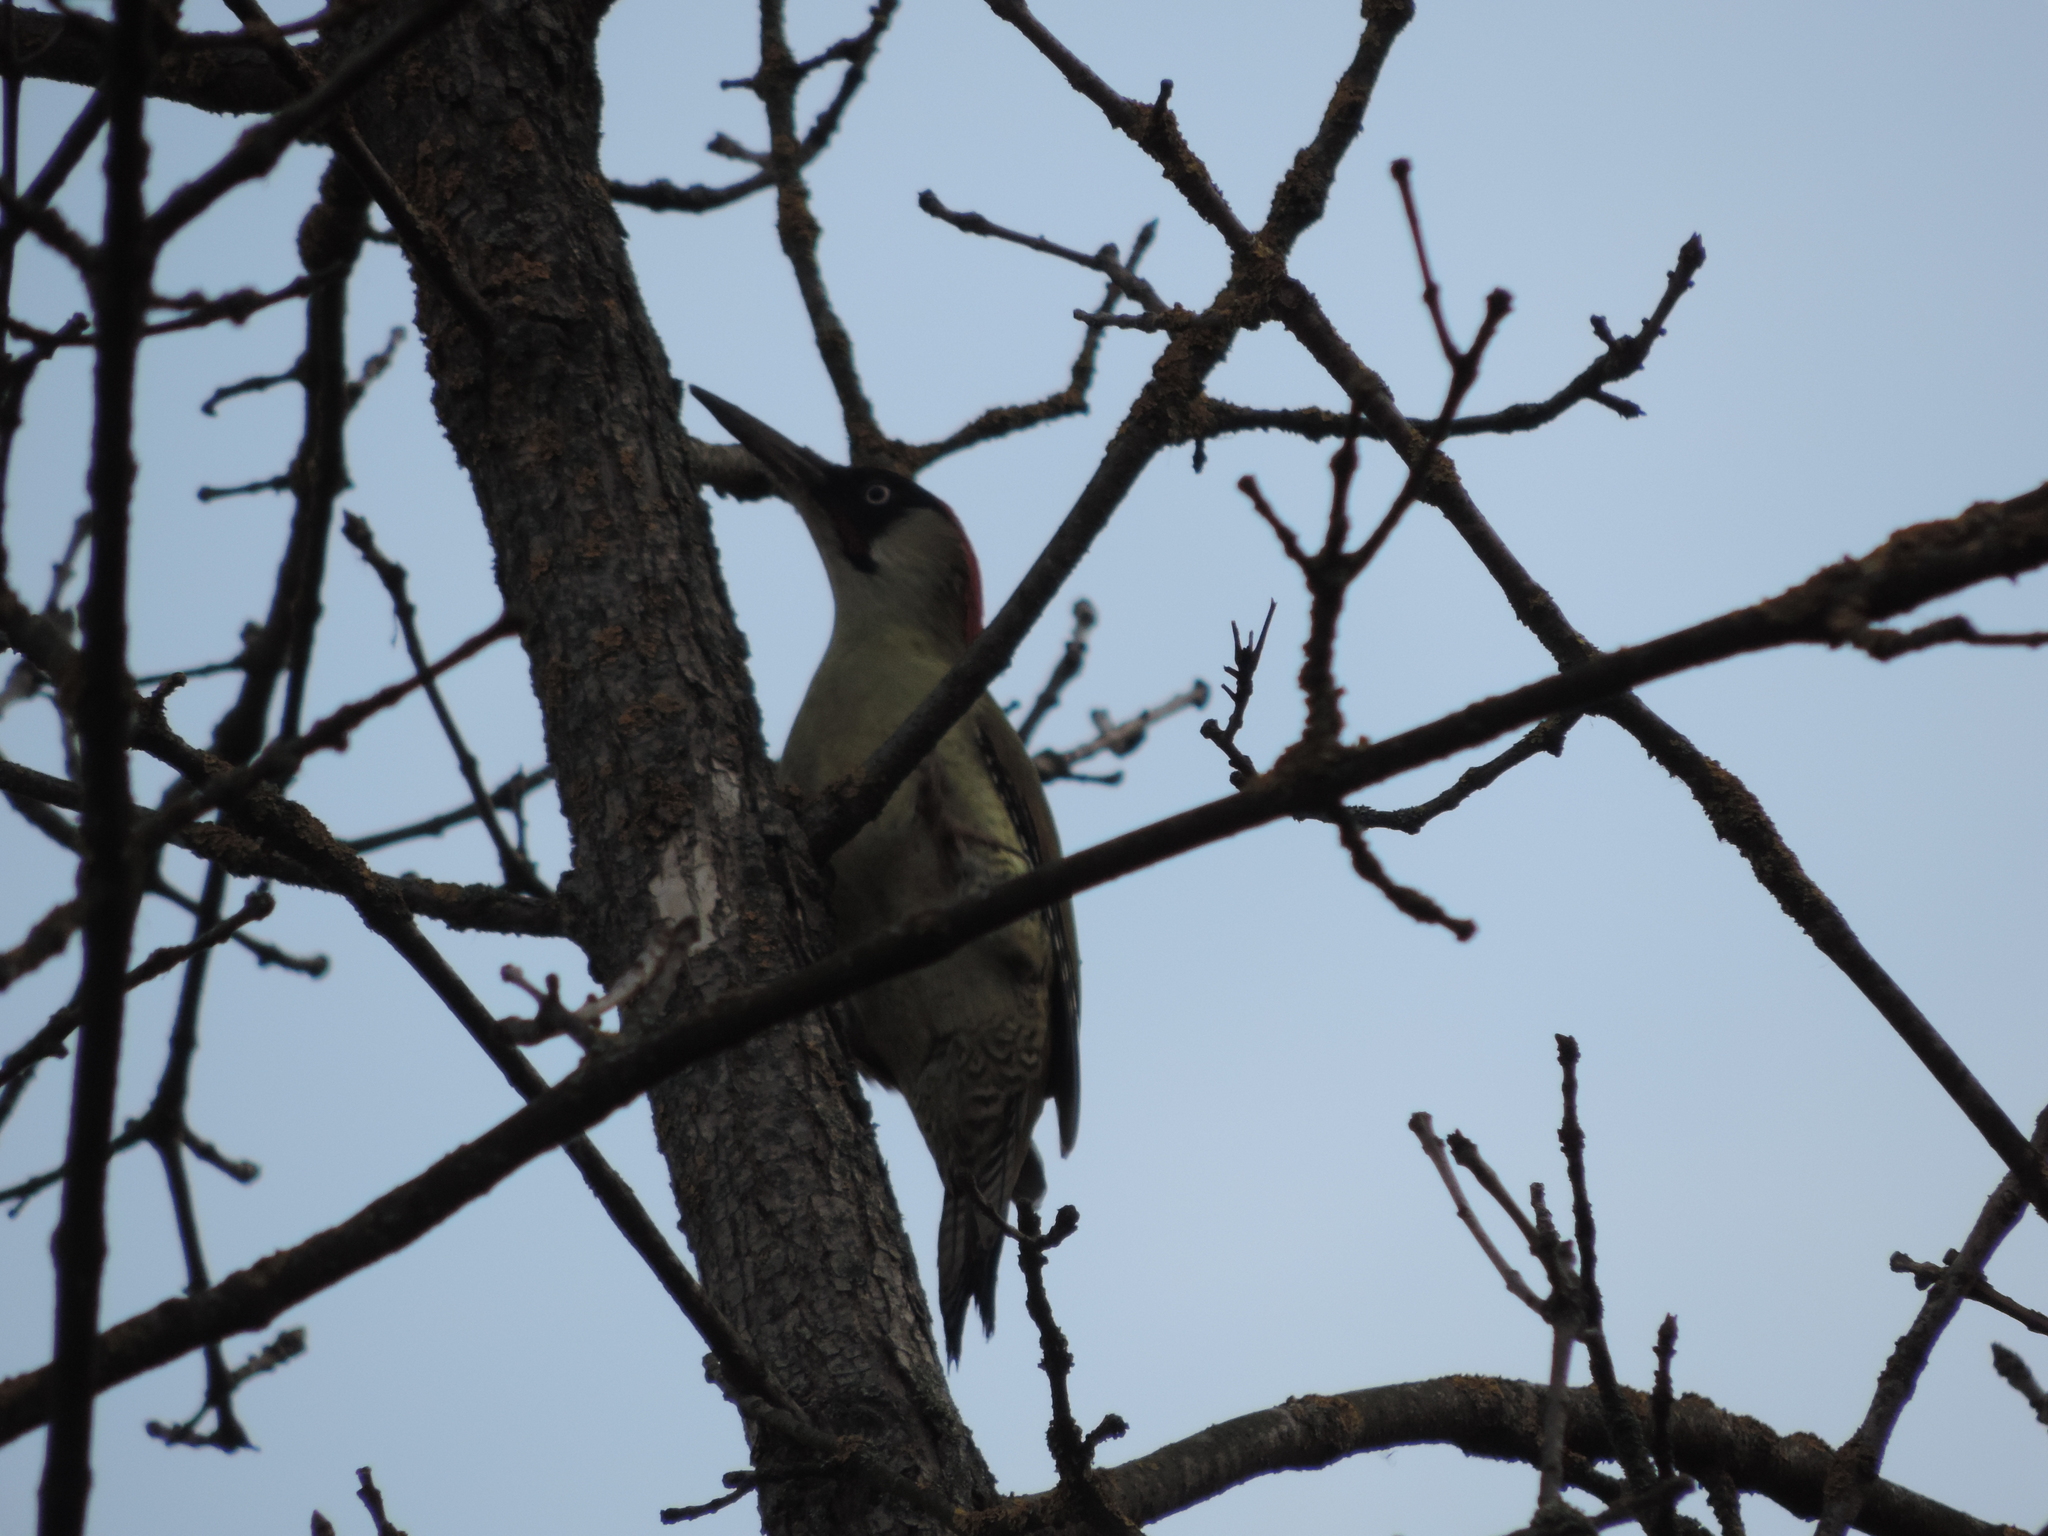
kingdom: Animalia
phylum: Chordata
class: Aves
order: Piciformes
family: Picidae
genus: Picus
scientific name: Picus viridis
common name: European green woodpecker
